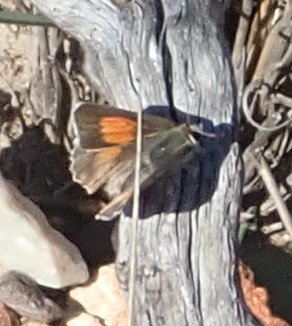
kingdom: Animalia
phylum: Arthropoda
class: Insecta
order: Lepidoptera
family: Lycaenidae
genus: Capys
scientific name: Capys alpheus
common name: Orange-banded protea butterfly
